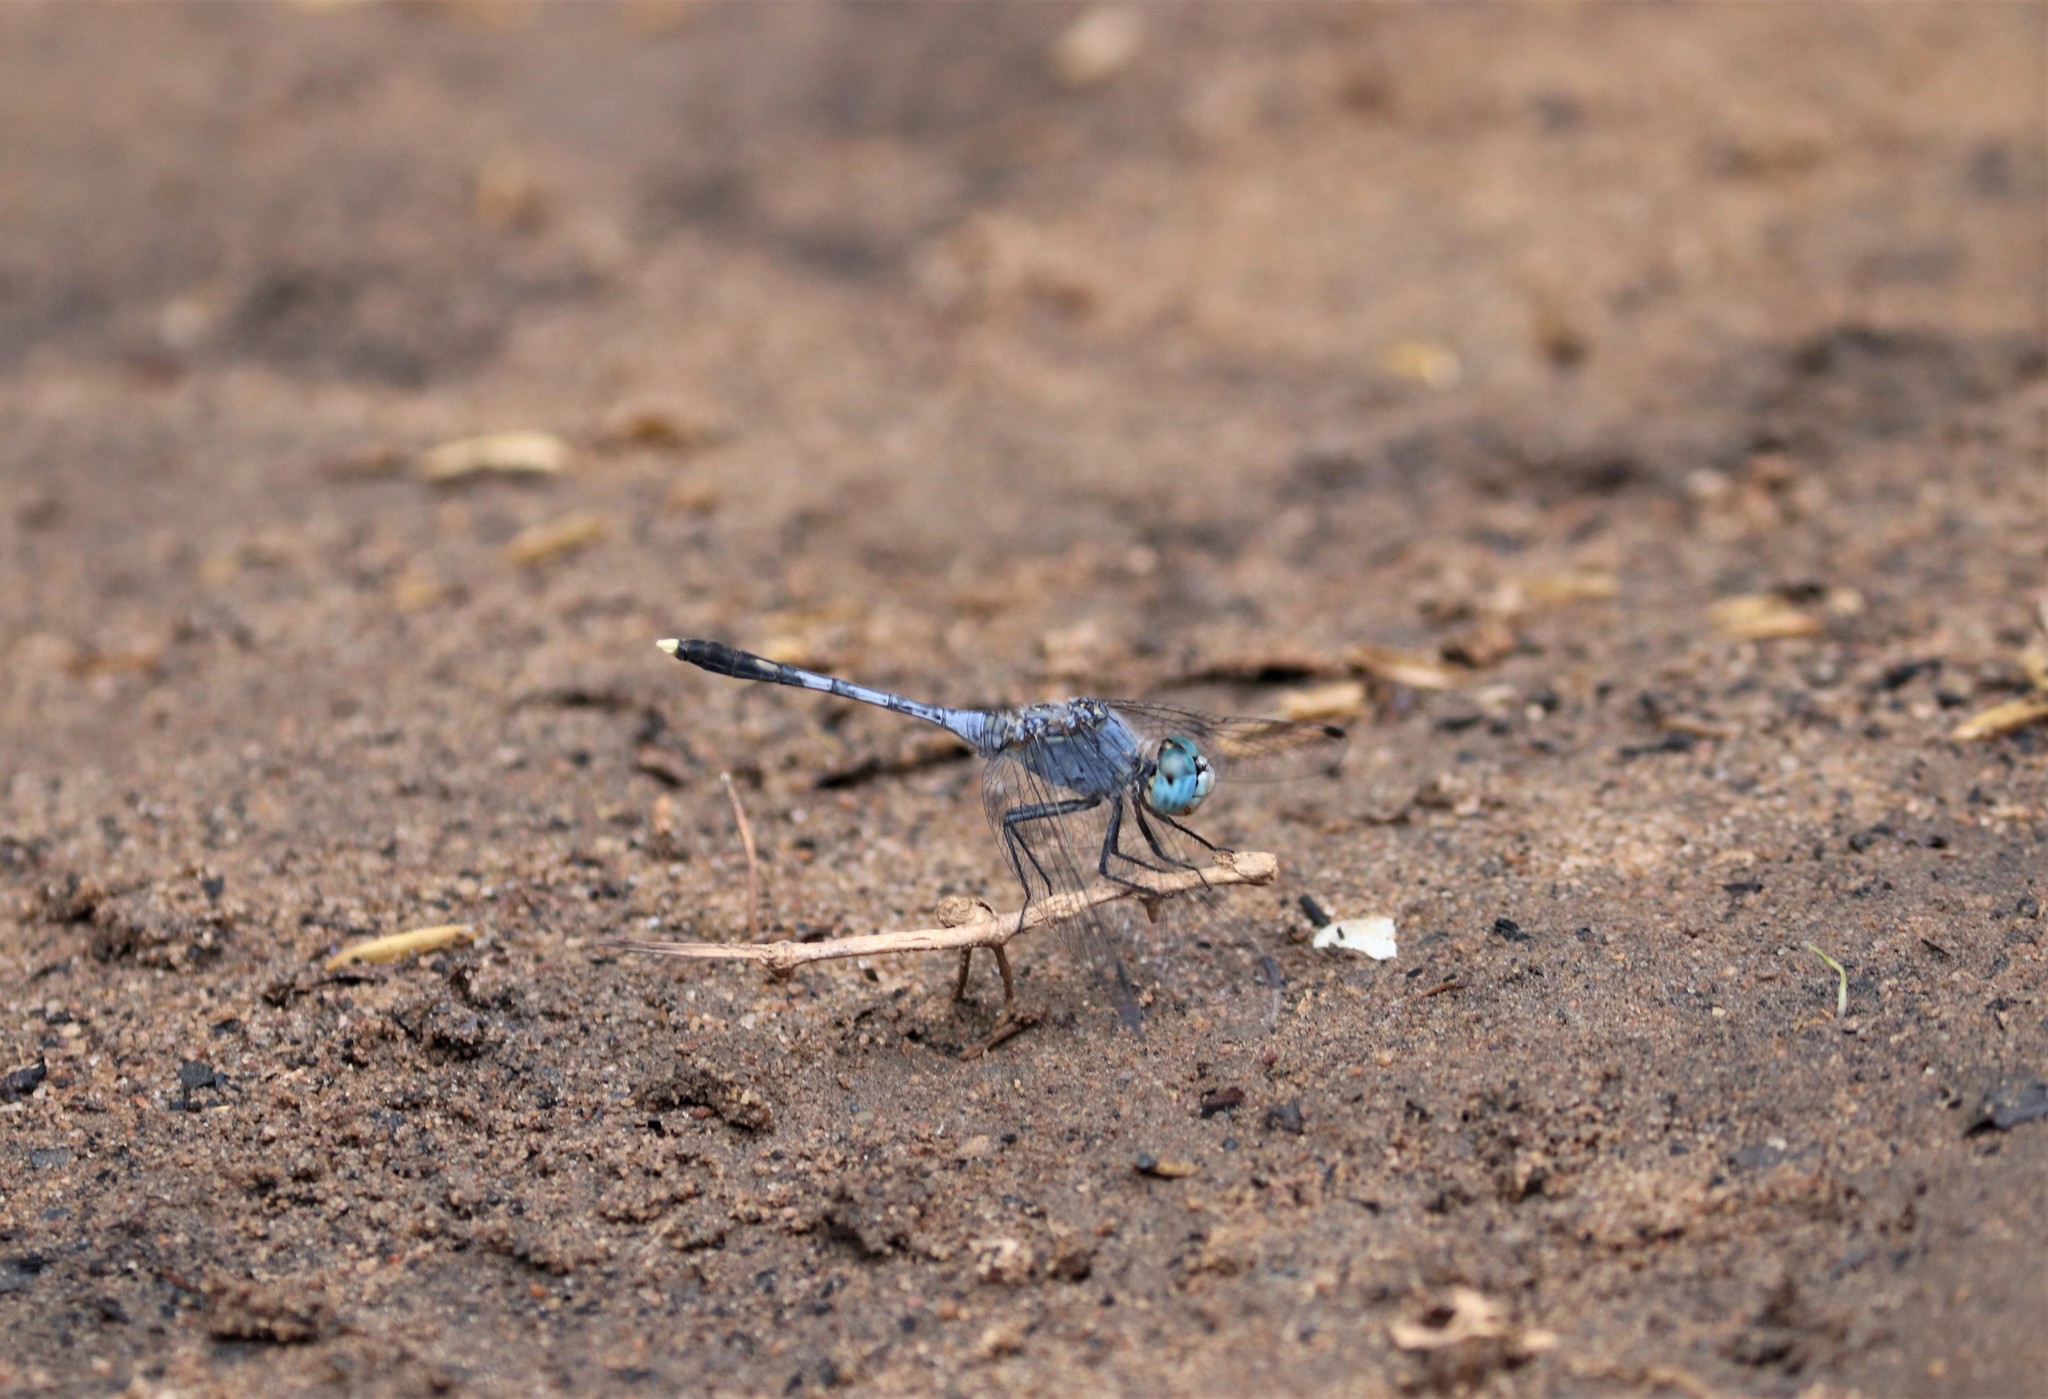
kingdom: Animalia
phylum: Arthropoda
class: Insecta
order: Odonata
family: Libellulidae
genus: Diplacodes
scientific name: Diplacodes trivialis
